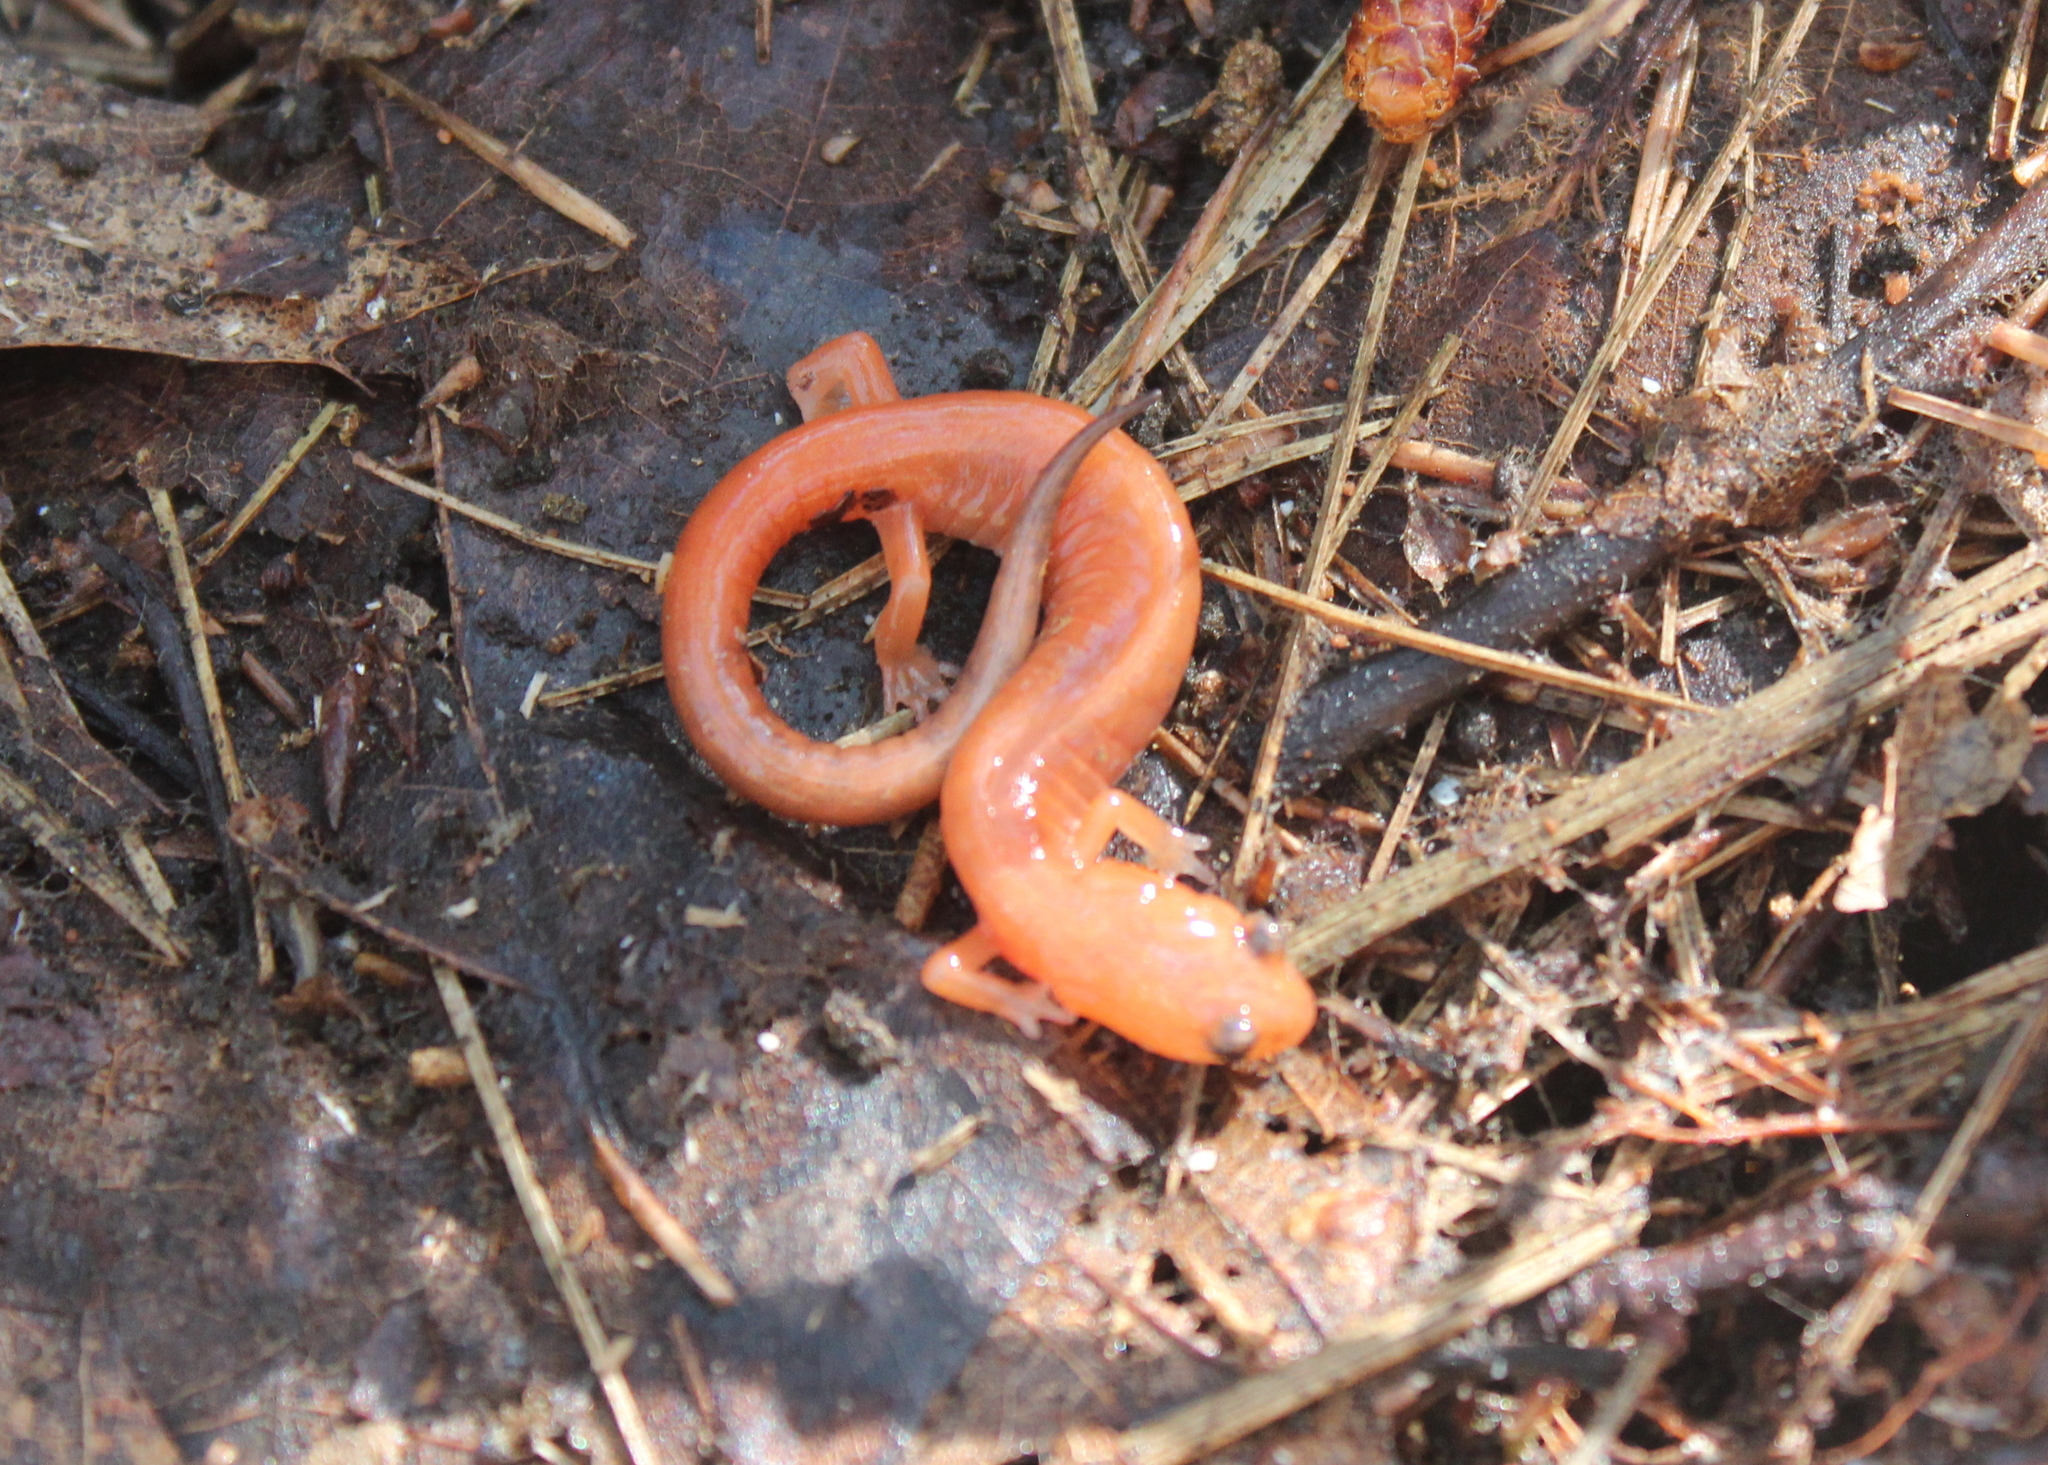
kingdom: Animalia
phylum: Chordata
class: Amphibia
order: Caudata
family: Plethodontidae
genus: Plethodon
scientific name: Plethodon cinereus
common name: Redback salamander
